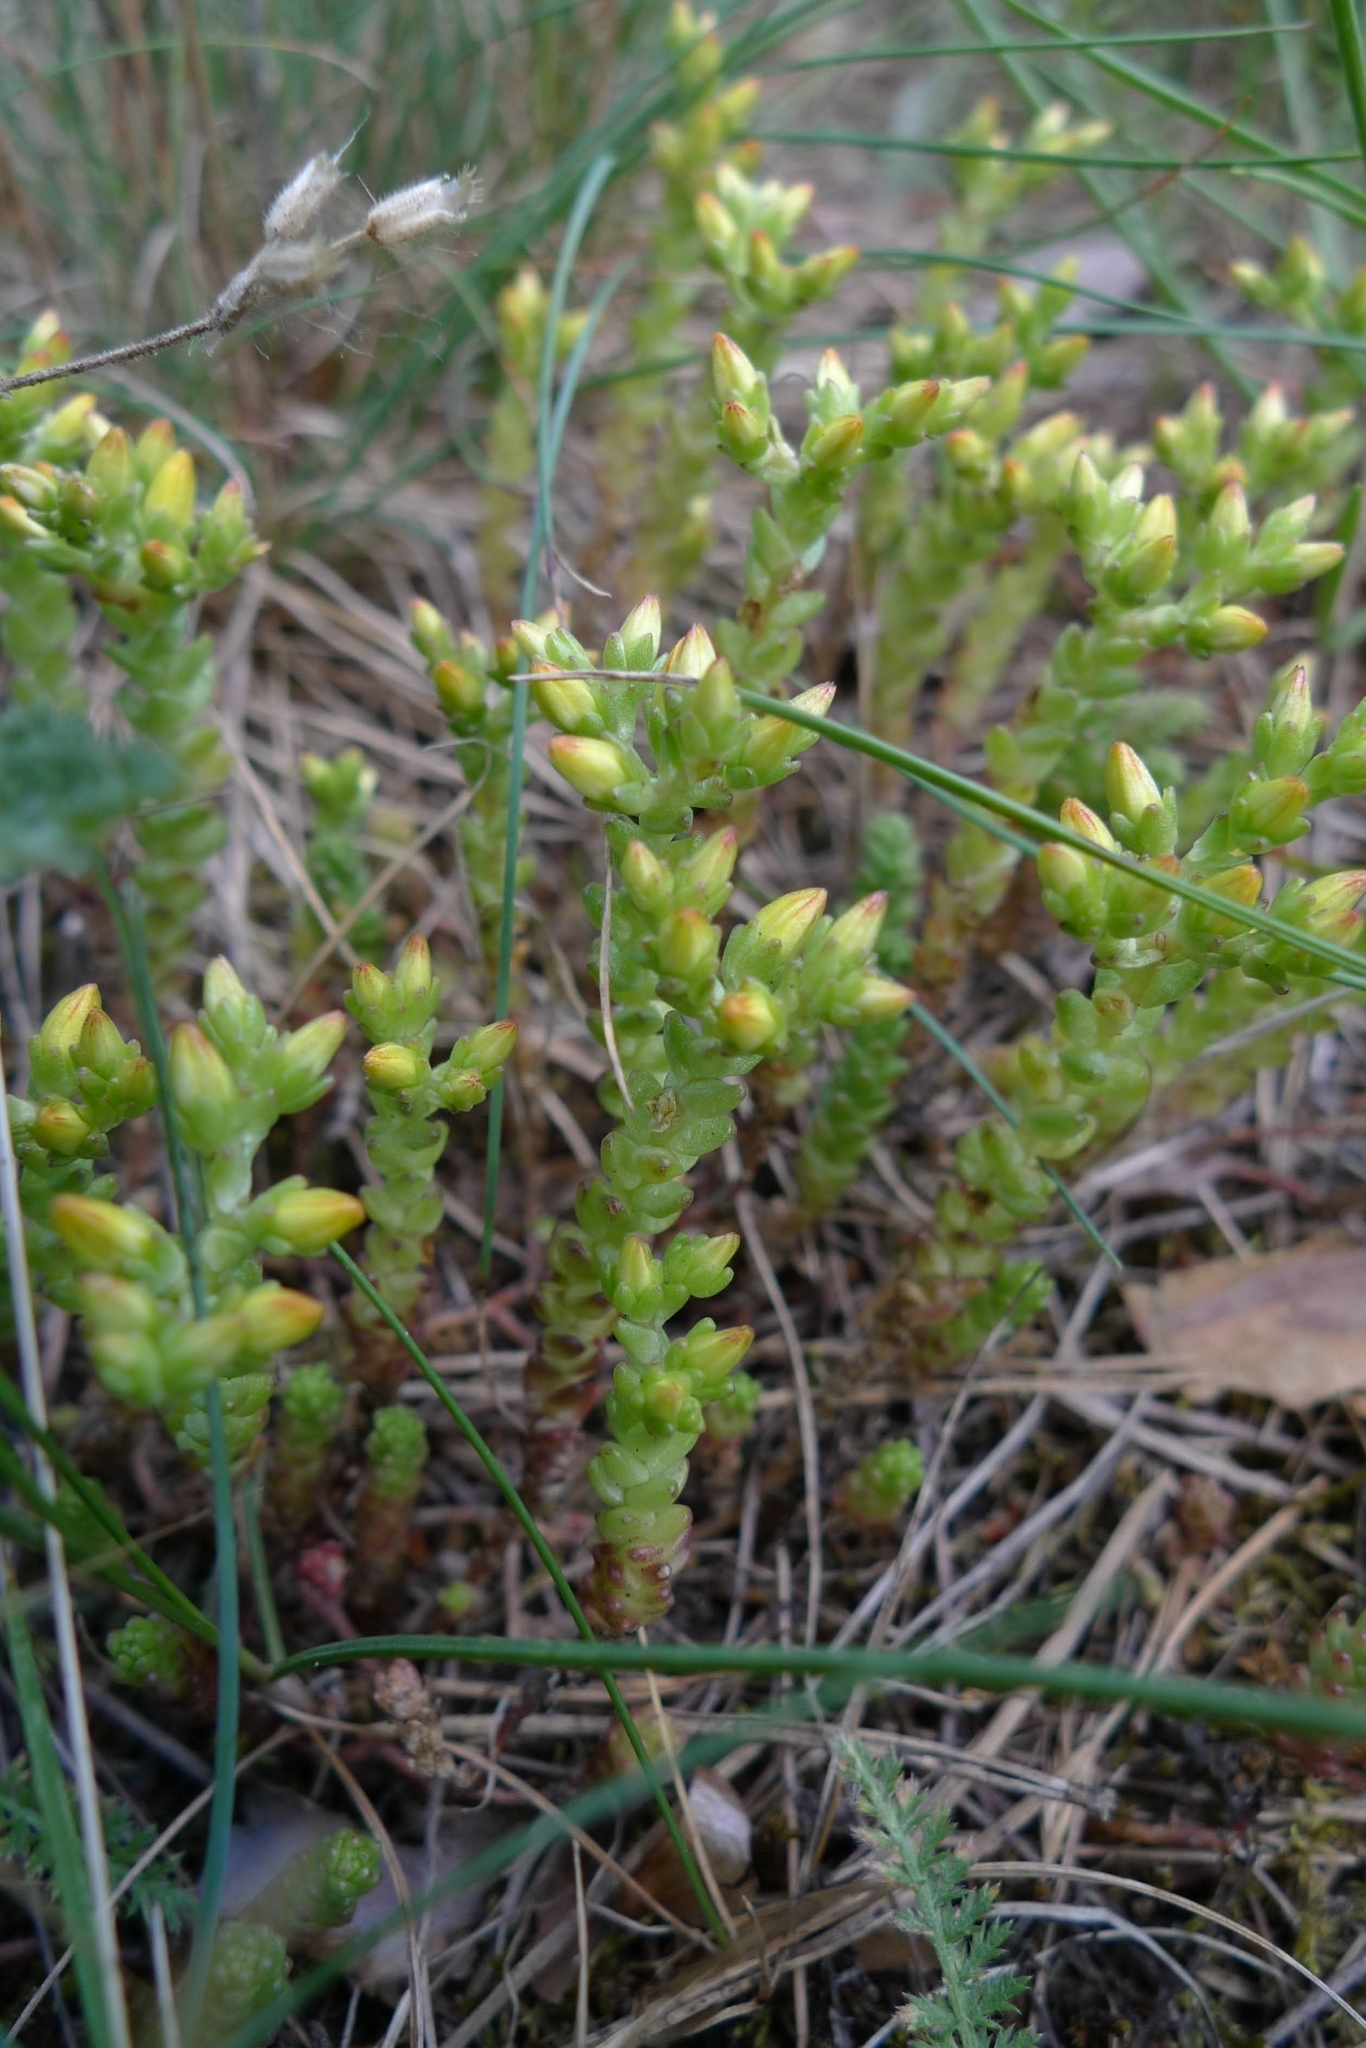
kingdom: Plantae
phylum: Tracheophyta
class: Magnoliopsida
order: Saxifragales
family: Crassulaceae
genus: Sedum
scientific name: Sedum acre
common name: Biting stonecrop
